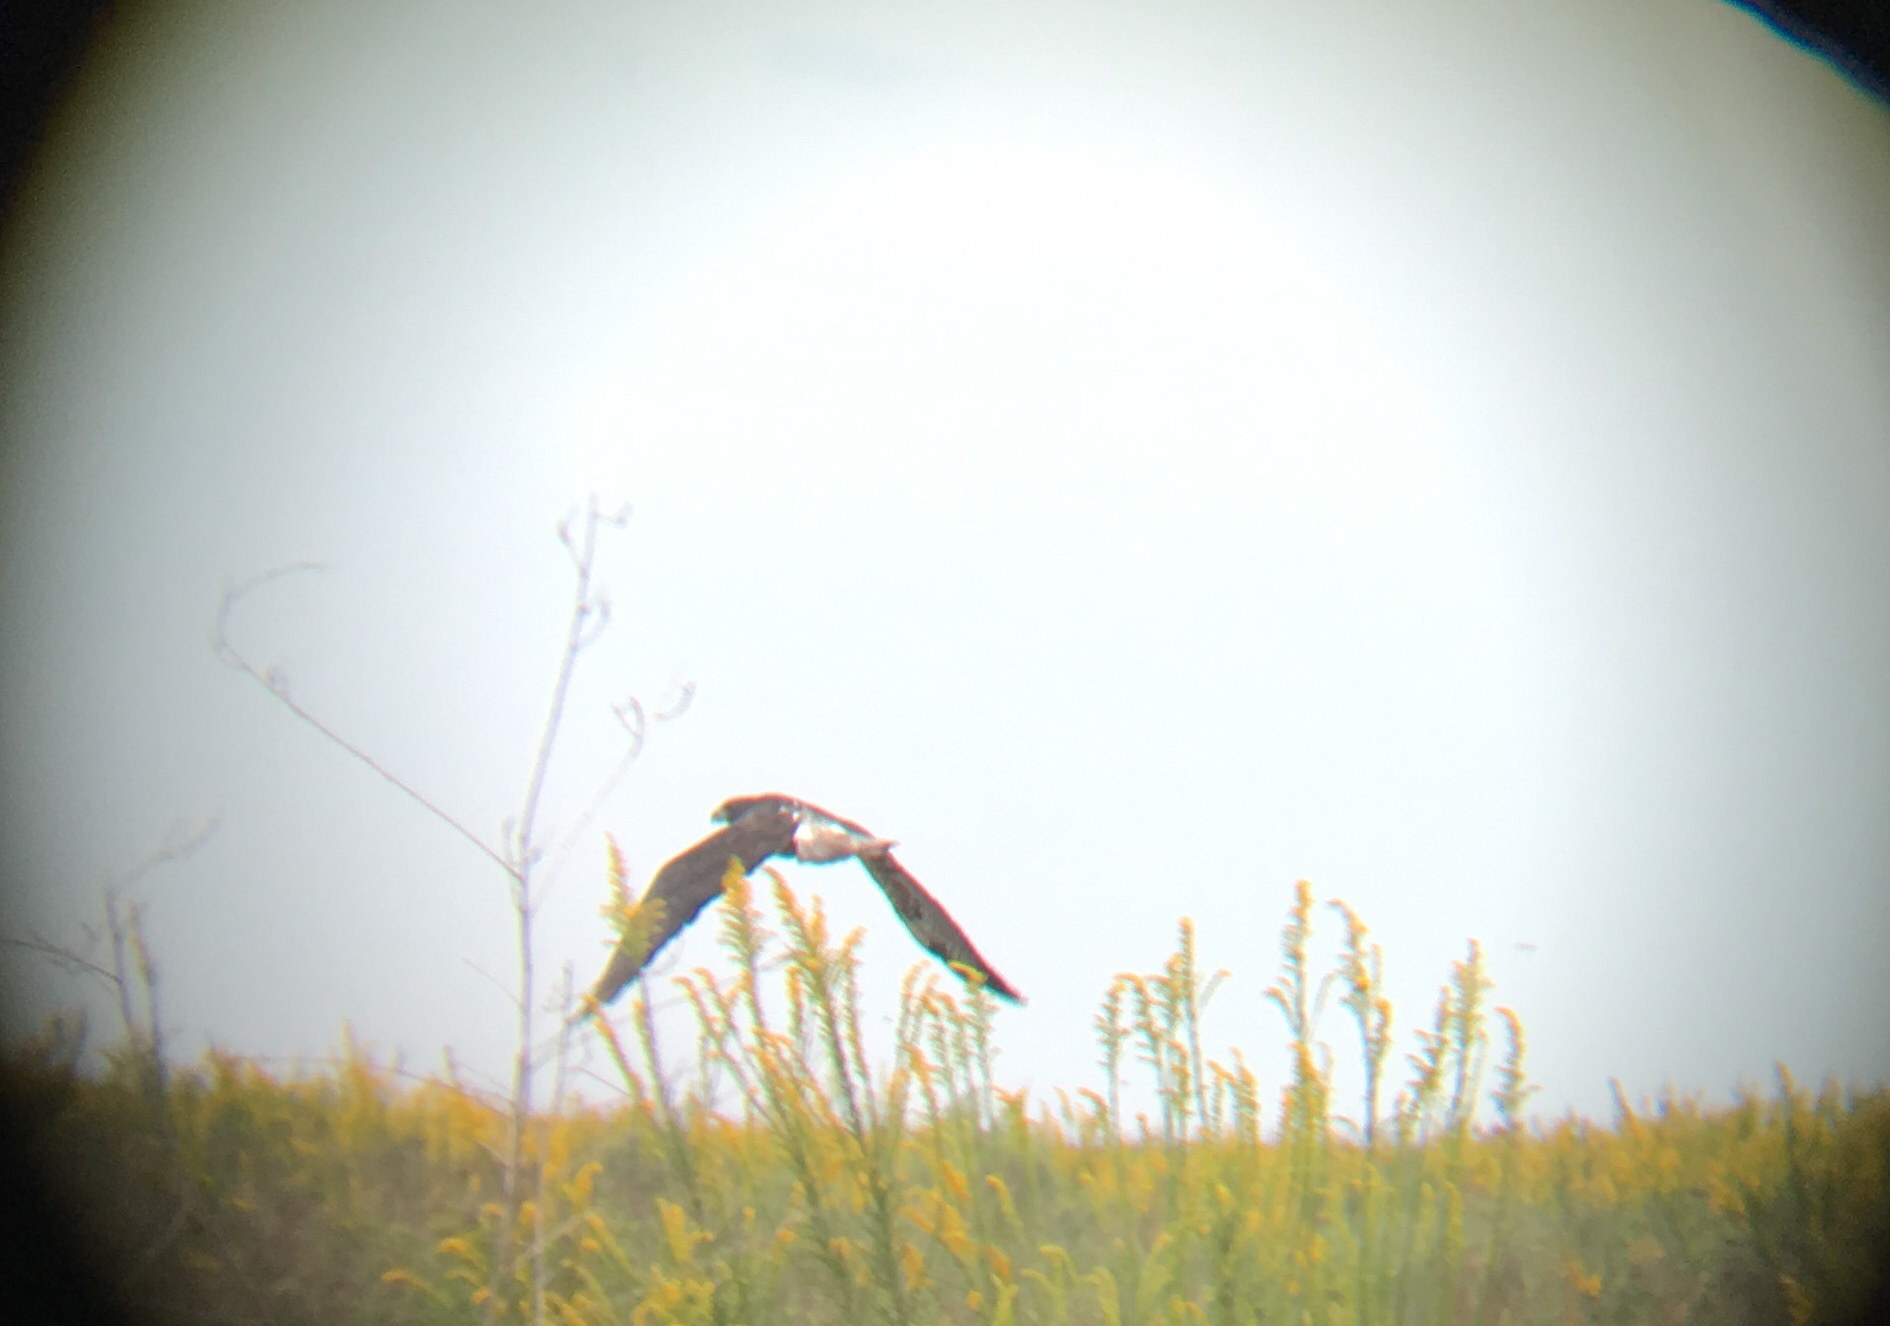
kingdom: Animalia
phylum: Chordata
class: Aves
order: Accipitriformes
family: Accipitridae
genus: Buteo
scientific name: Buteo albicaudatus
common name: White-tailed hawk
